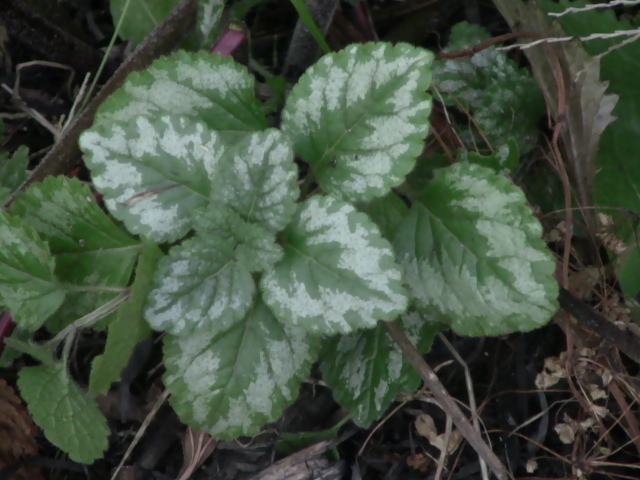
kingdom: Plantae
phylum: Tracheophyta
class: Magnoliopsida
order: Lamiales
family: Lamiaceae
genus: Lamium
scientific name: Lamium galeobdolon
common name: Yellow archangel
